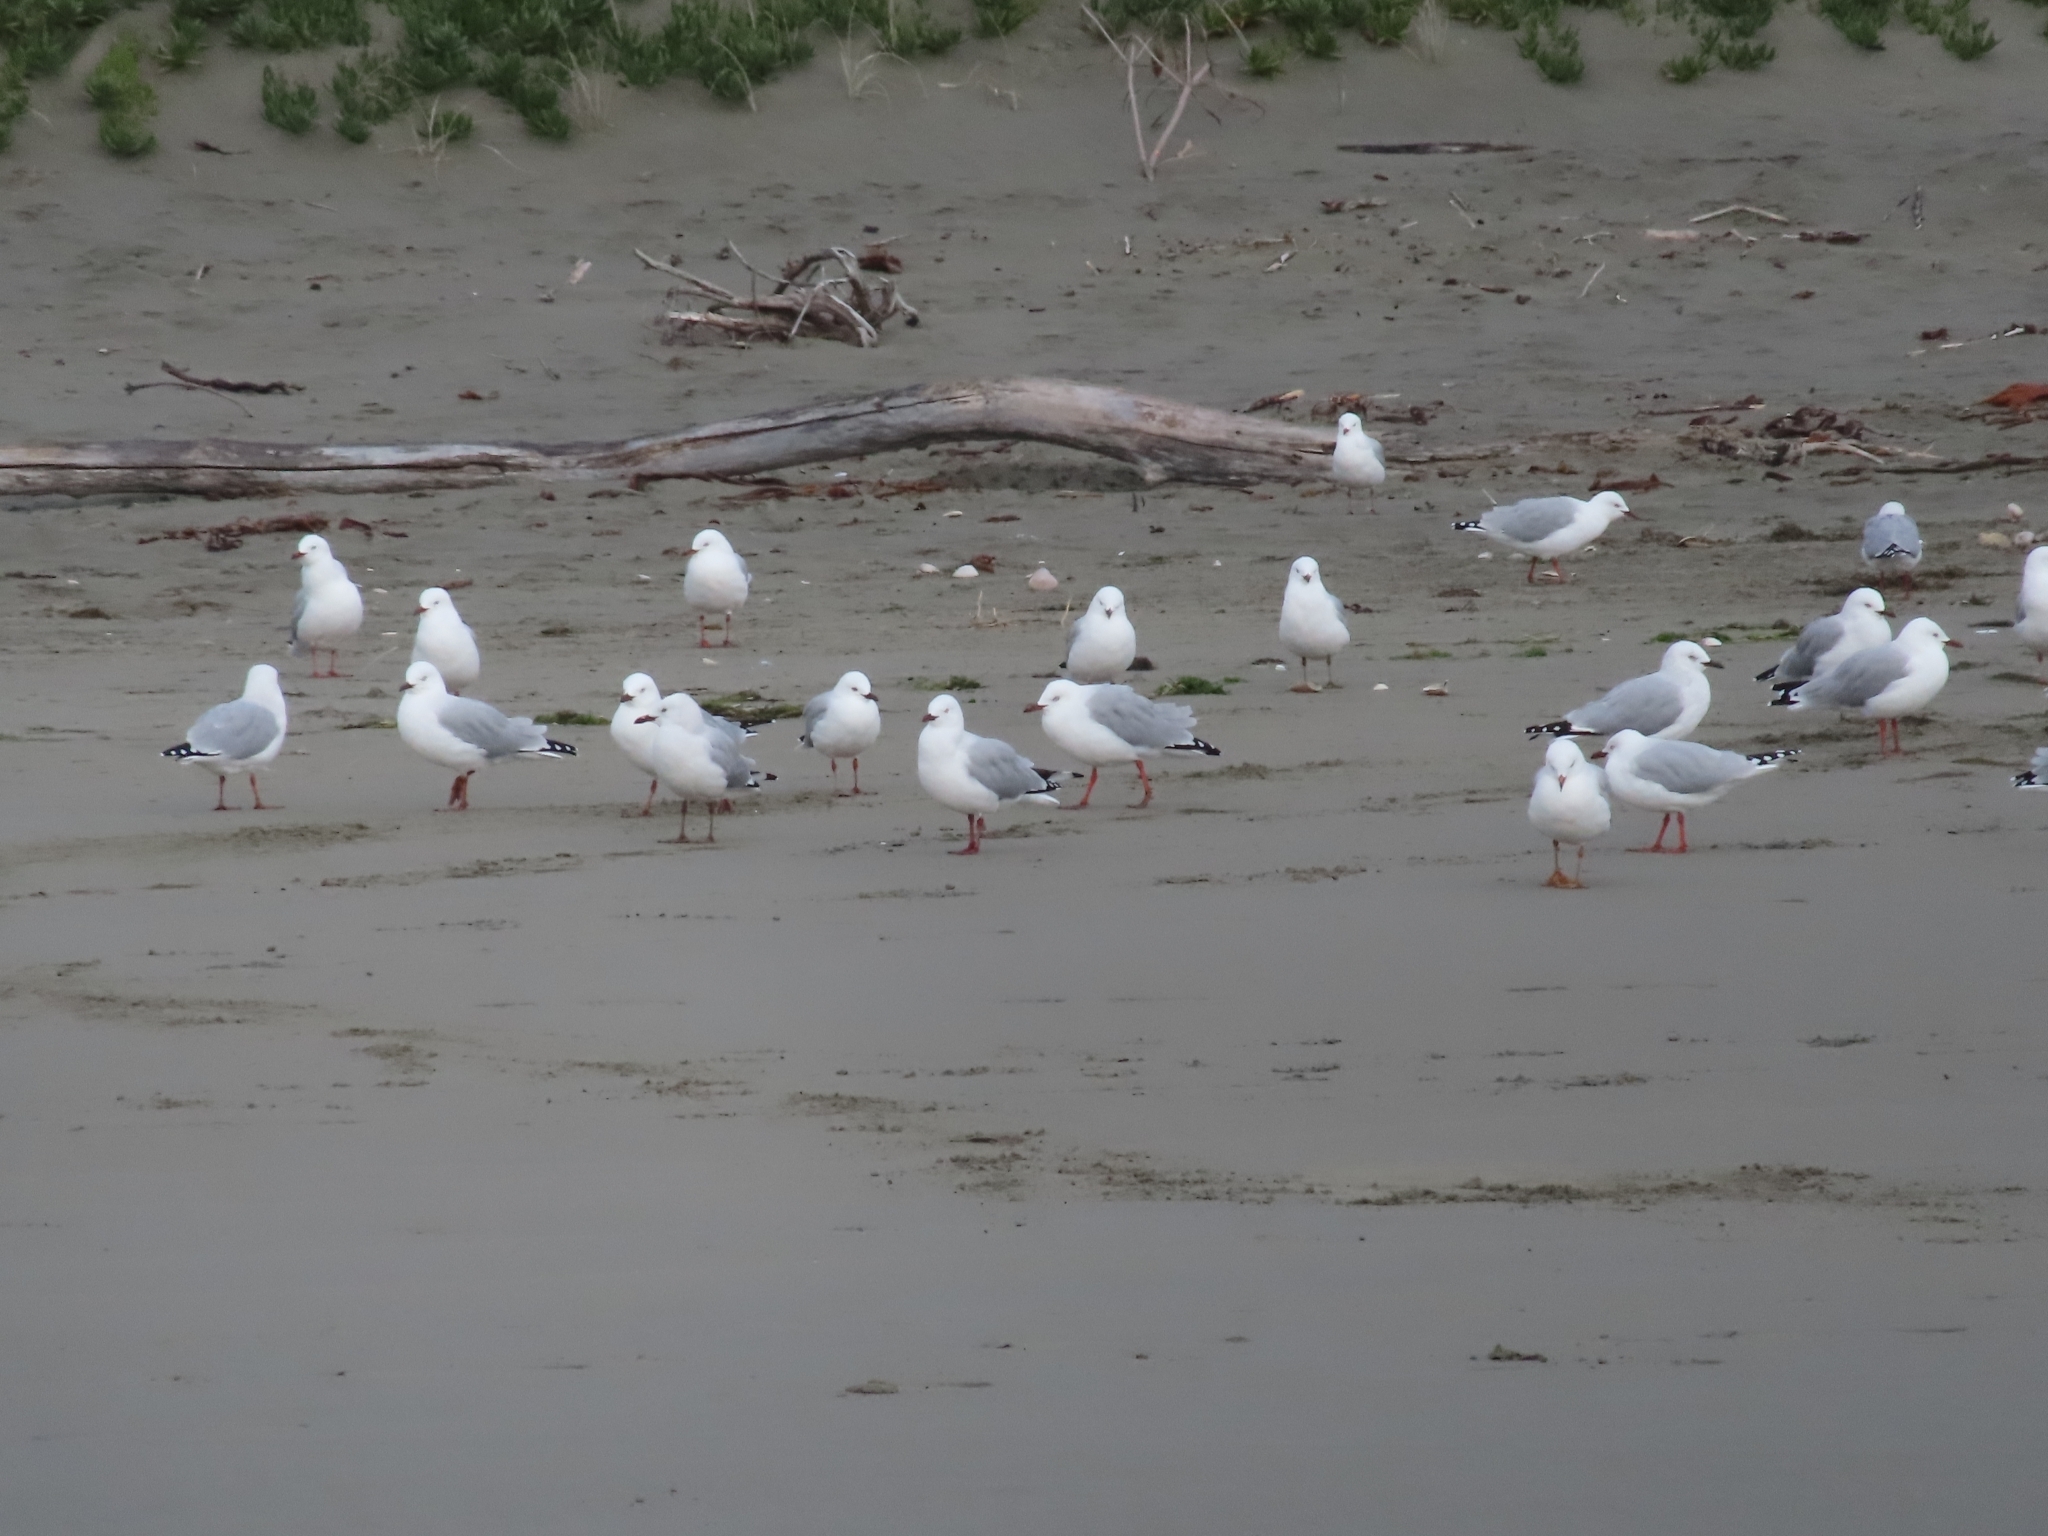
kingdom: Animalia
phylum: Chordata
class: Aves
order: Charadriiformes
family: Laridae
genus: Chroicocephalus
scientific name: Chroicocephalus novaehollandiae
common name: Silver gull
